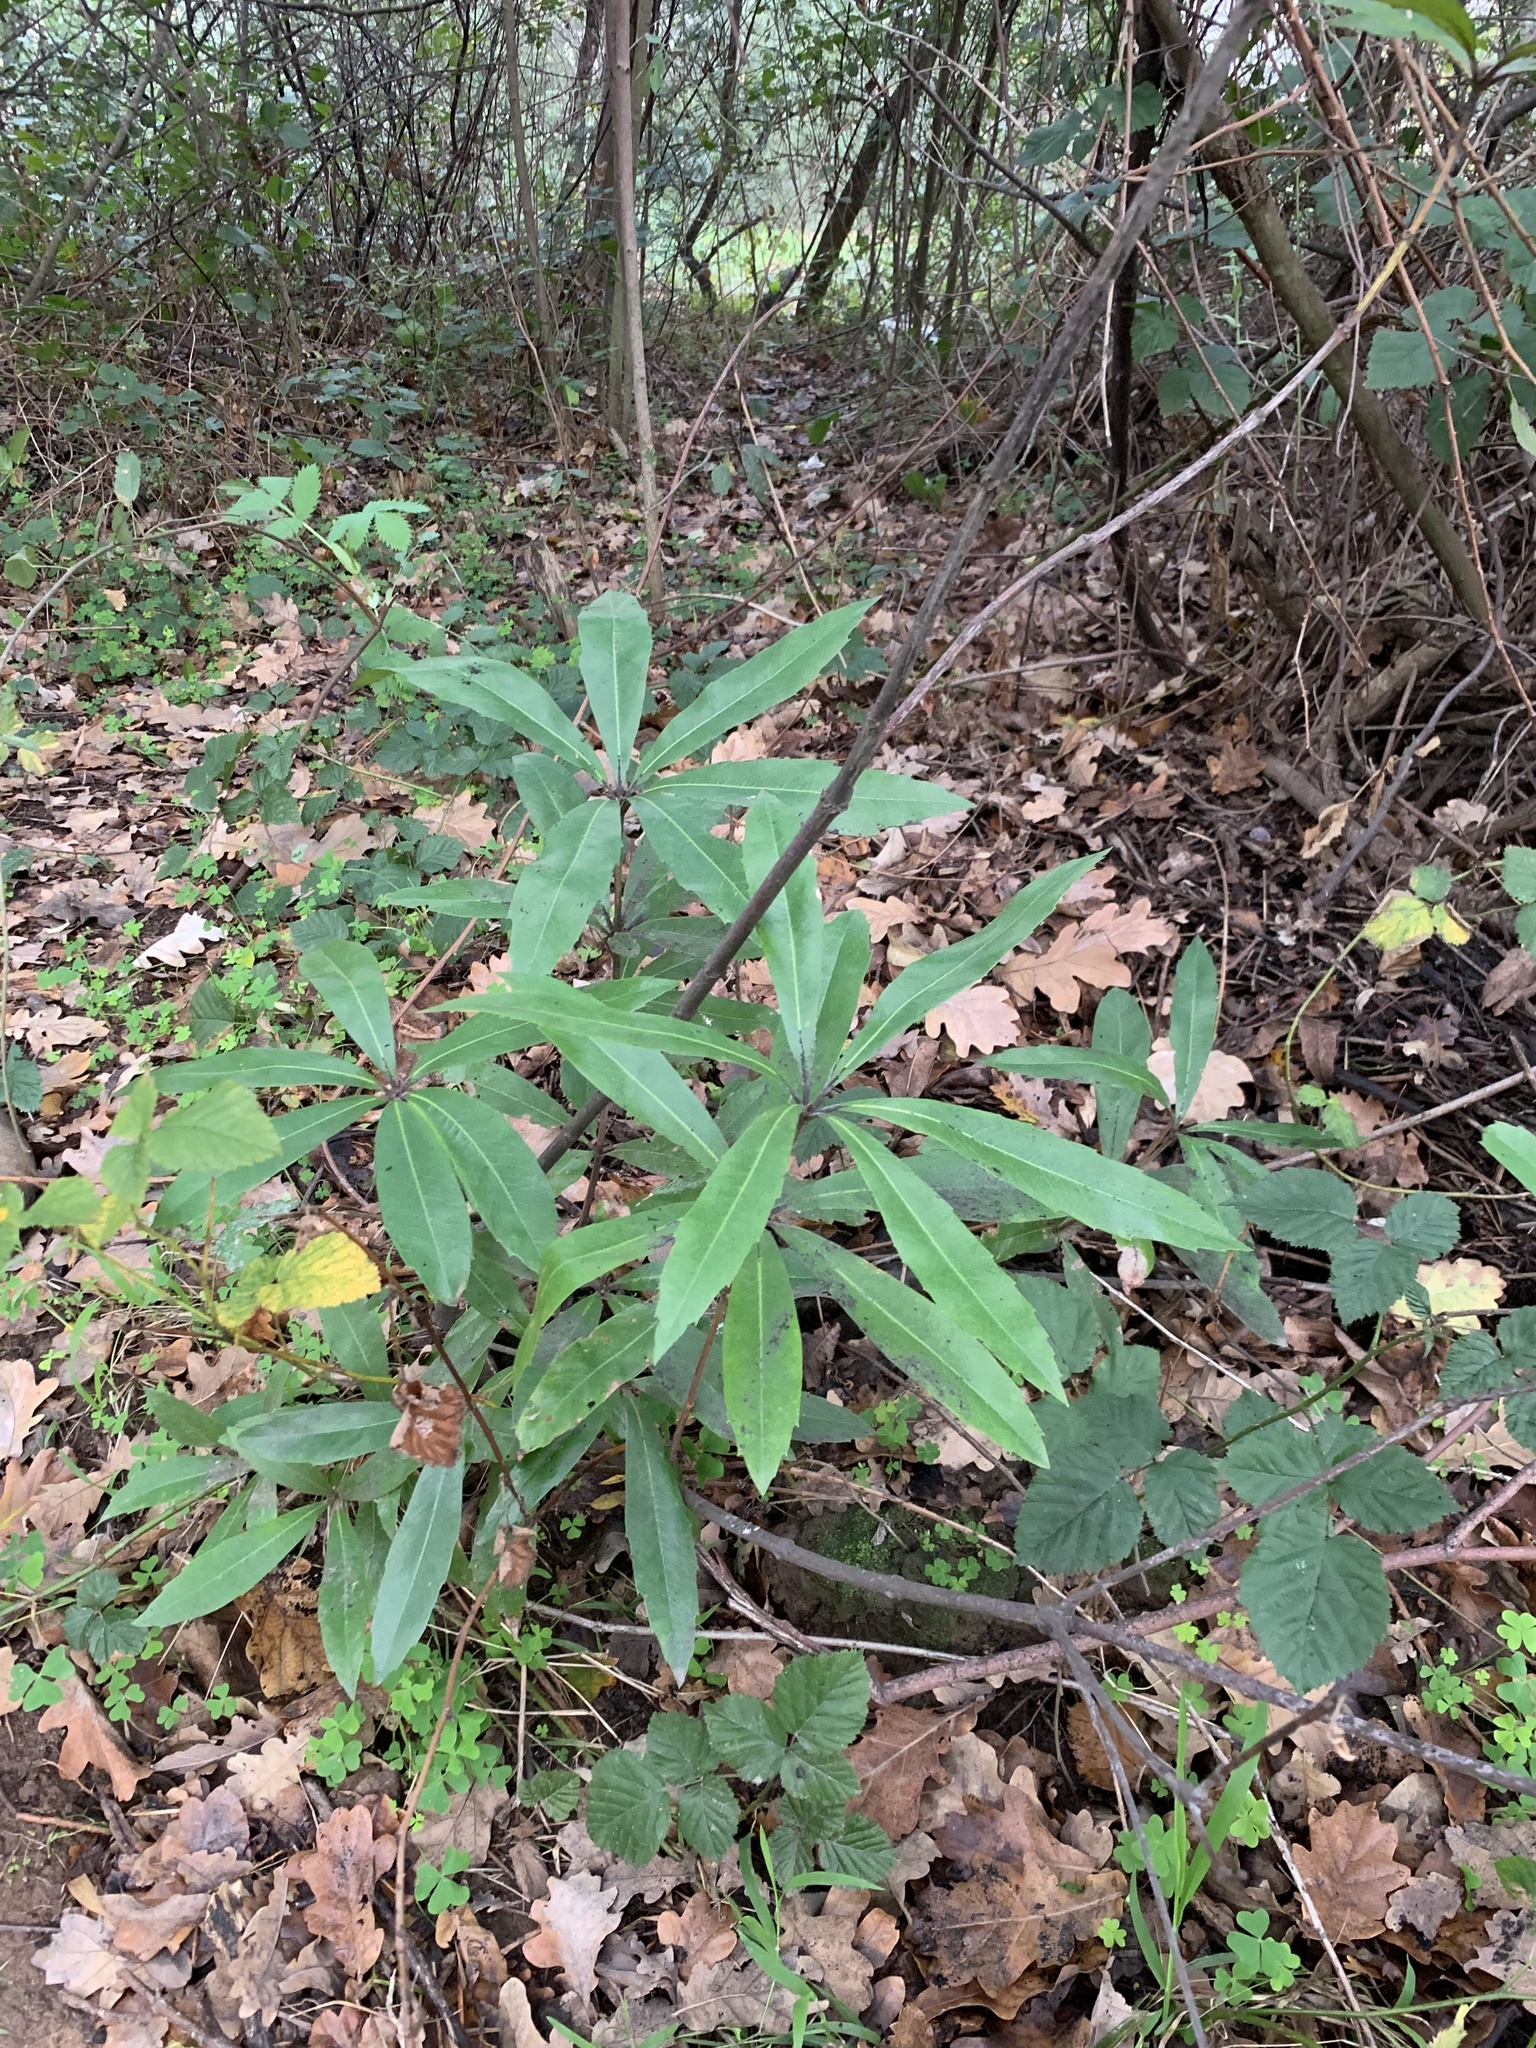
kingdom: Plantae
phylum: Tracheophyta
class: Magnoliopsida
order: Proteales
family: Proteaceae
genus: Brabejum
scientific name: Brabejum stellatifolium
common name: Wild almond
